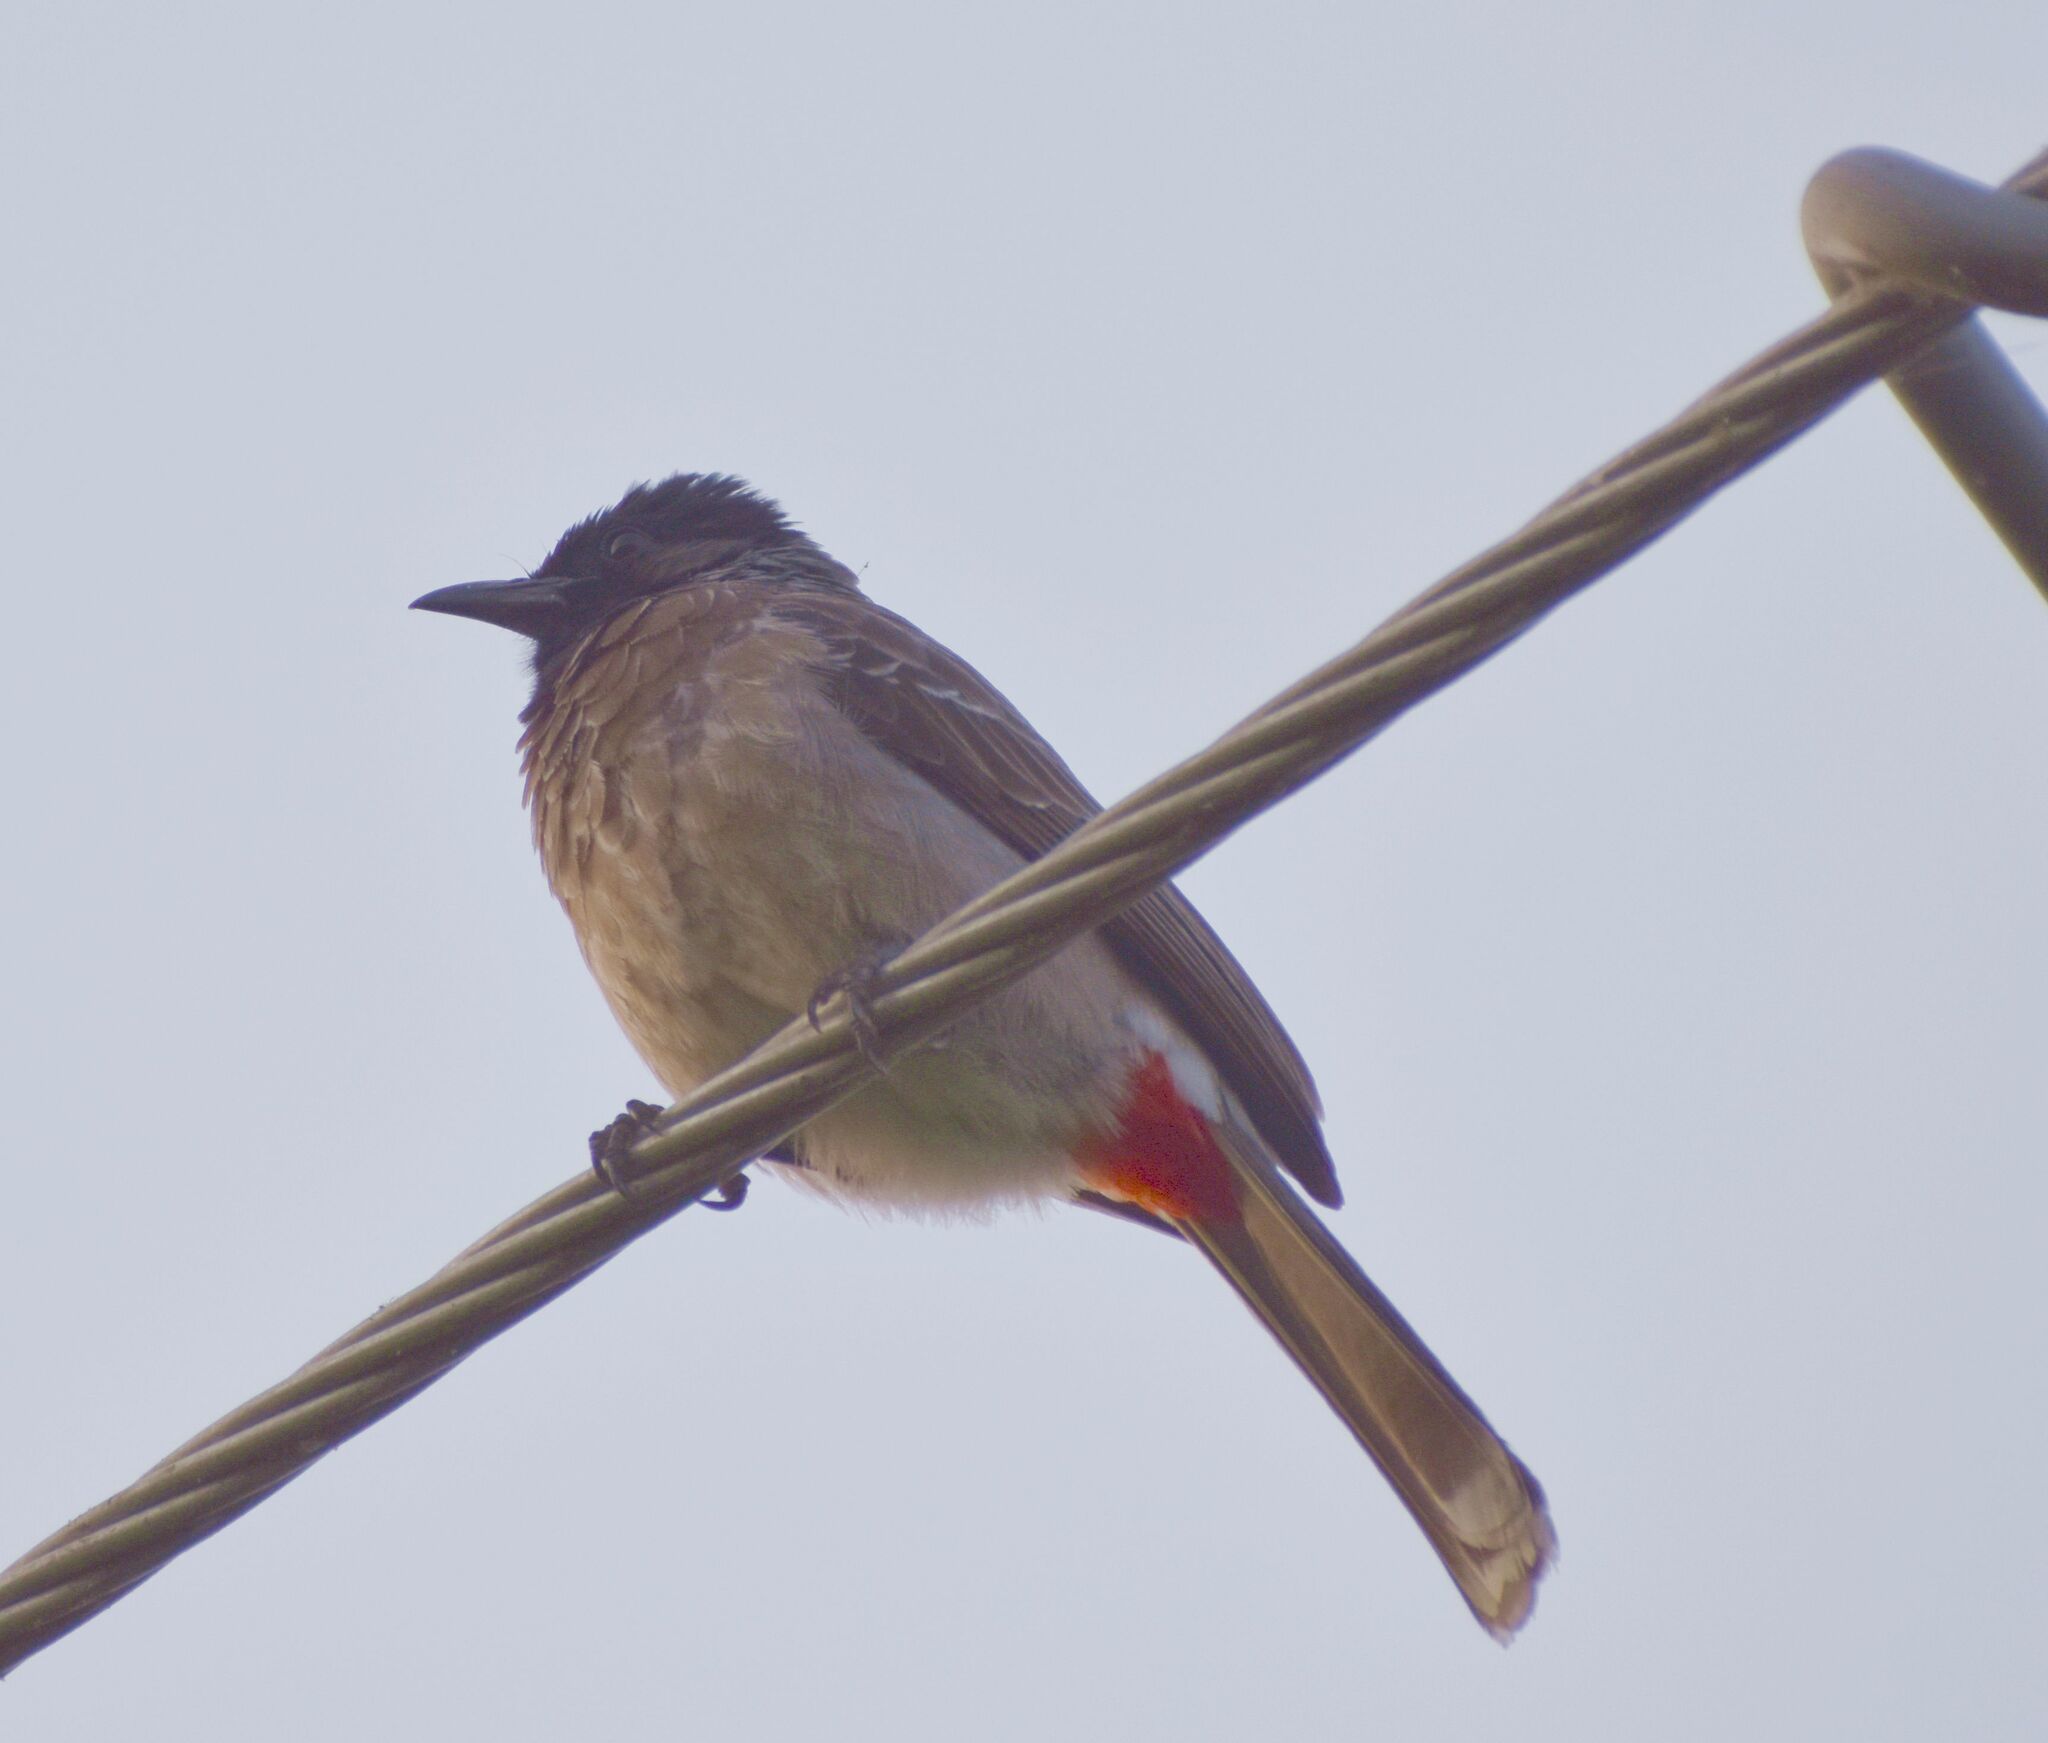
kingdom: Animalia
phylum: Chordata
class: Aves
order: Passeriformes
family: Pycnonotidae
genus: Pycnonotus
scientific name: Pycnonotus cafer
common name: Red-vented bulbul
